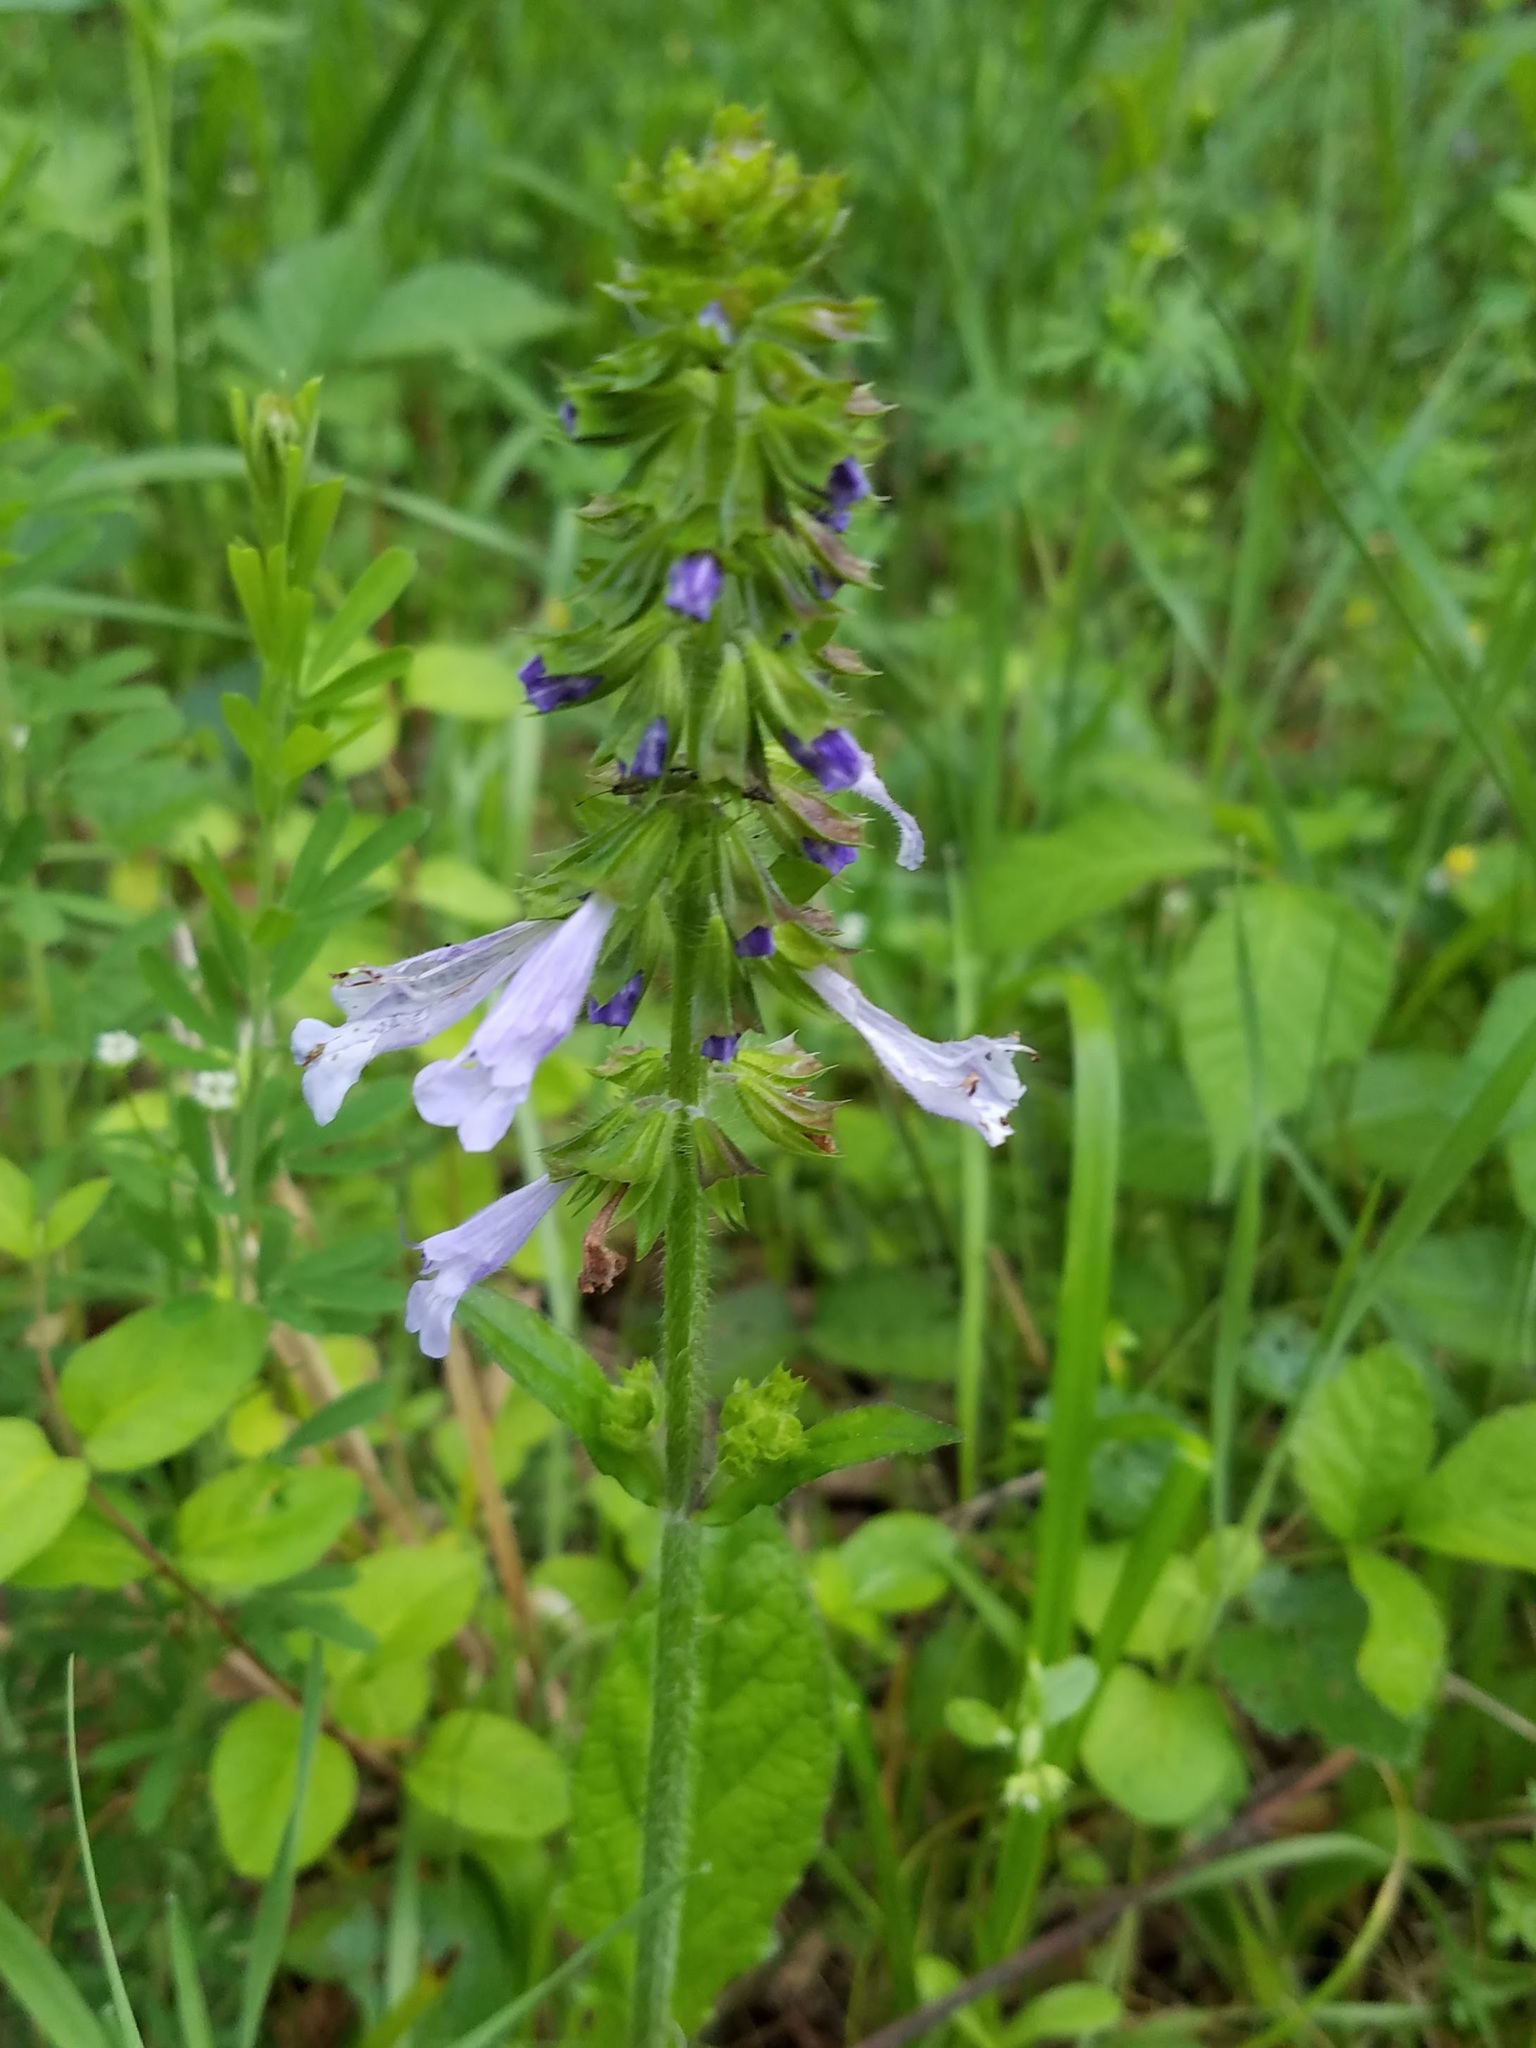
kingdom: Plantae
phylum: Tracheophyta
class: Magnoliopsida
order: Lamiales
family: Lamiaceae
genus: Salvia
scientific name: Salvia lyrata
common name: Cancerweed
